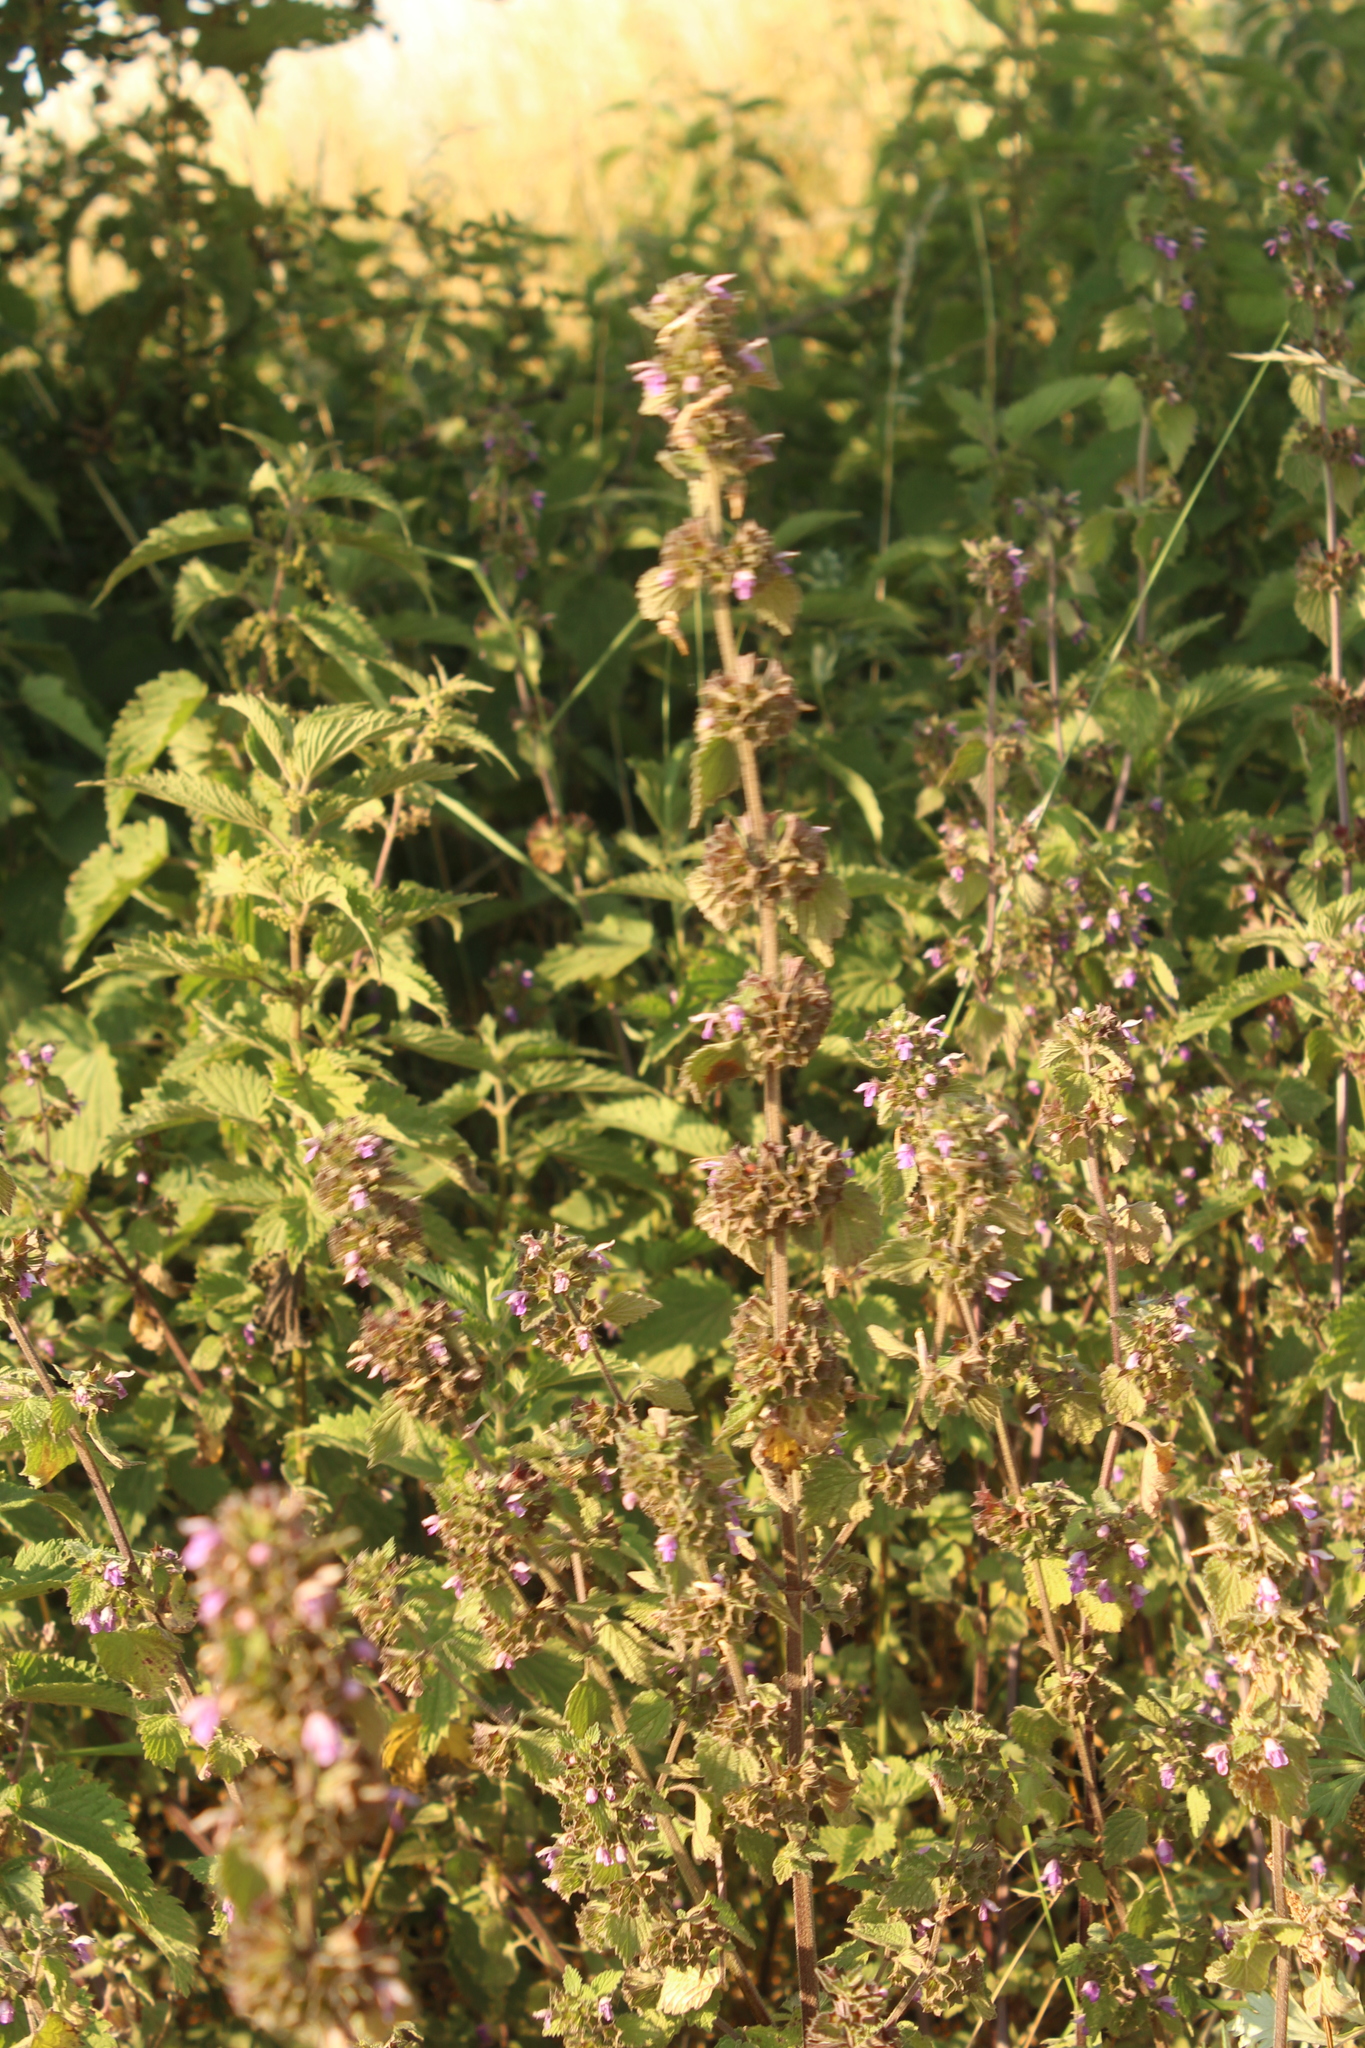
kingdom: Plantae
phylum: Tracheophyta
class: Magnoliopsida
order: Lamiales
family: Lamiaceae
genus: Ballota
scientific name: Ballota nigra
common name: Black horehound
